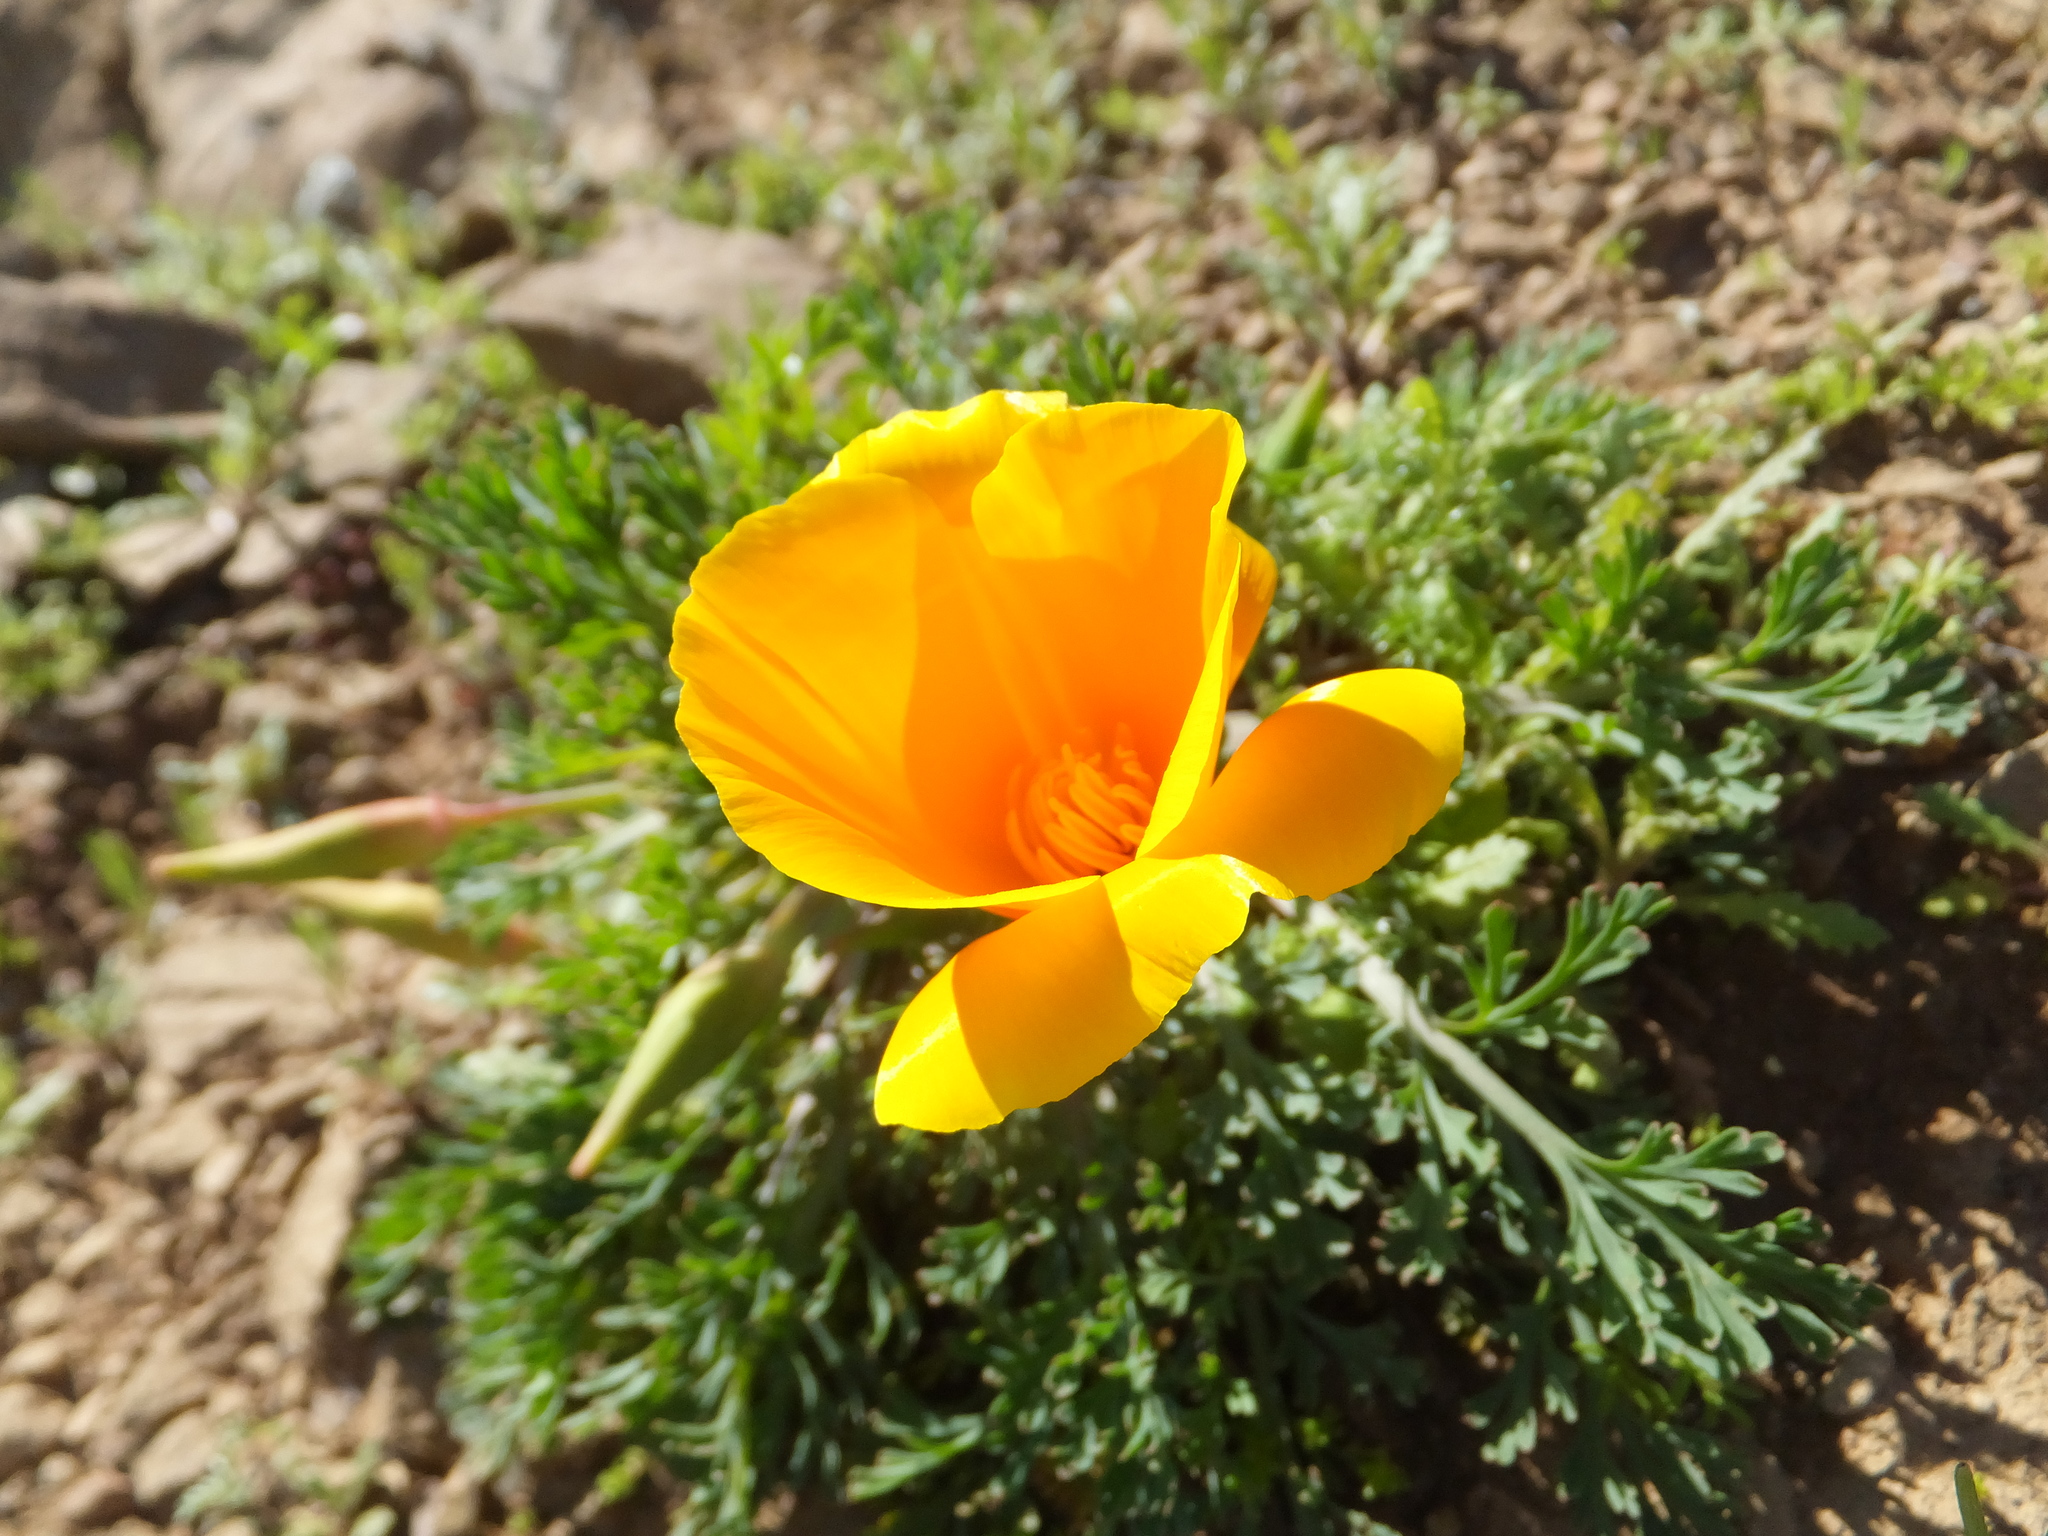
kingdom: Plantae
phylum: Tracheophyta
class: Magnoliopsida
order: Ranunculales
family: Papaveraceae
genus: Eschscholzia
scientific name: Eschscholzia californica
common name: California poppy
